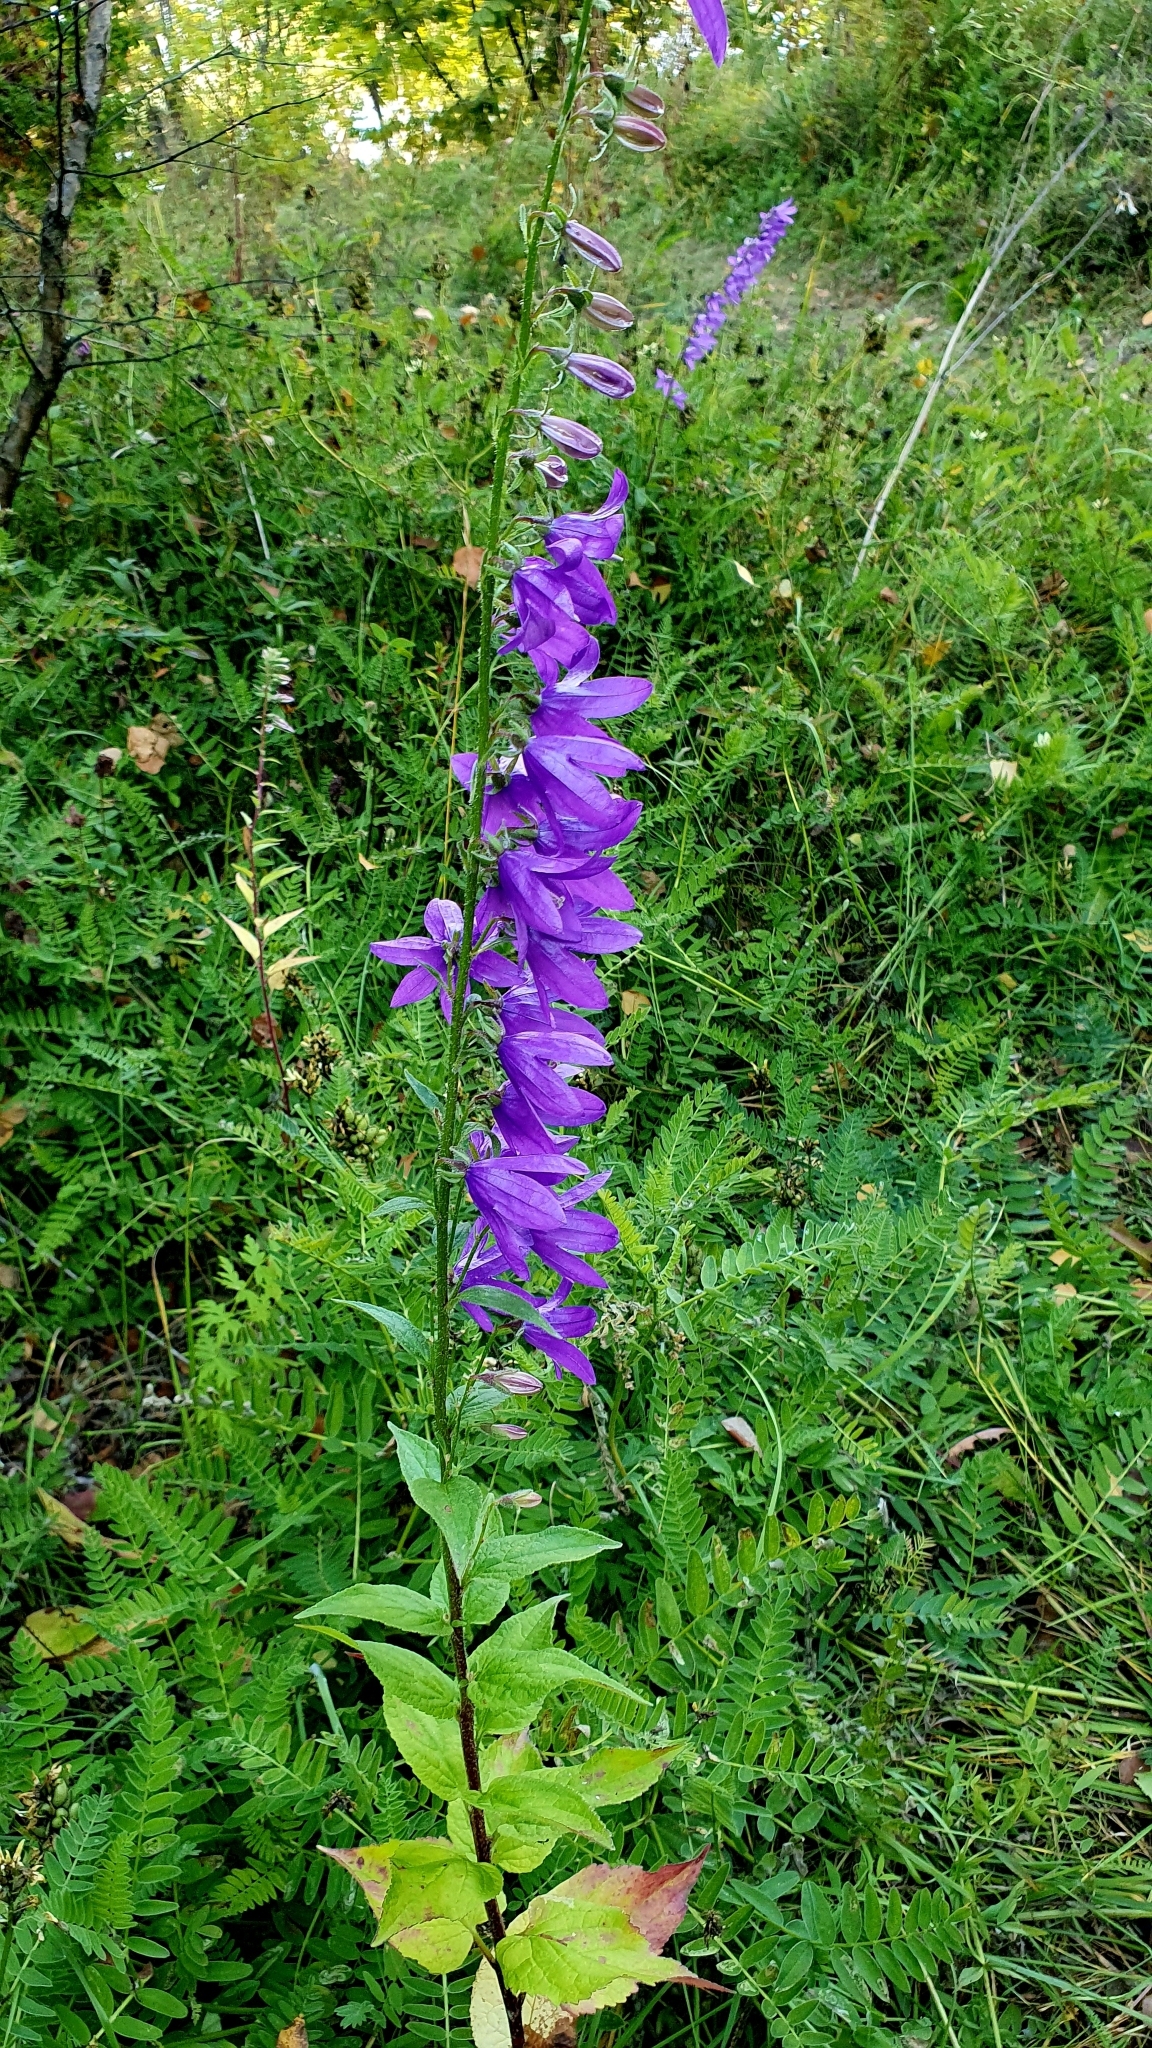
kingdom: Plantae
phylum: Tracheophyta
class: Magnoliopsida
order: Asterales
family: Campanulaceae
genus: Campanula
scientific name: Campanula rapunculoides
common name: Creeping bellflower
